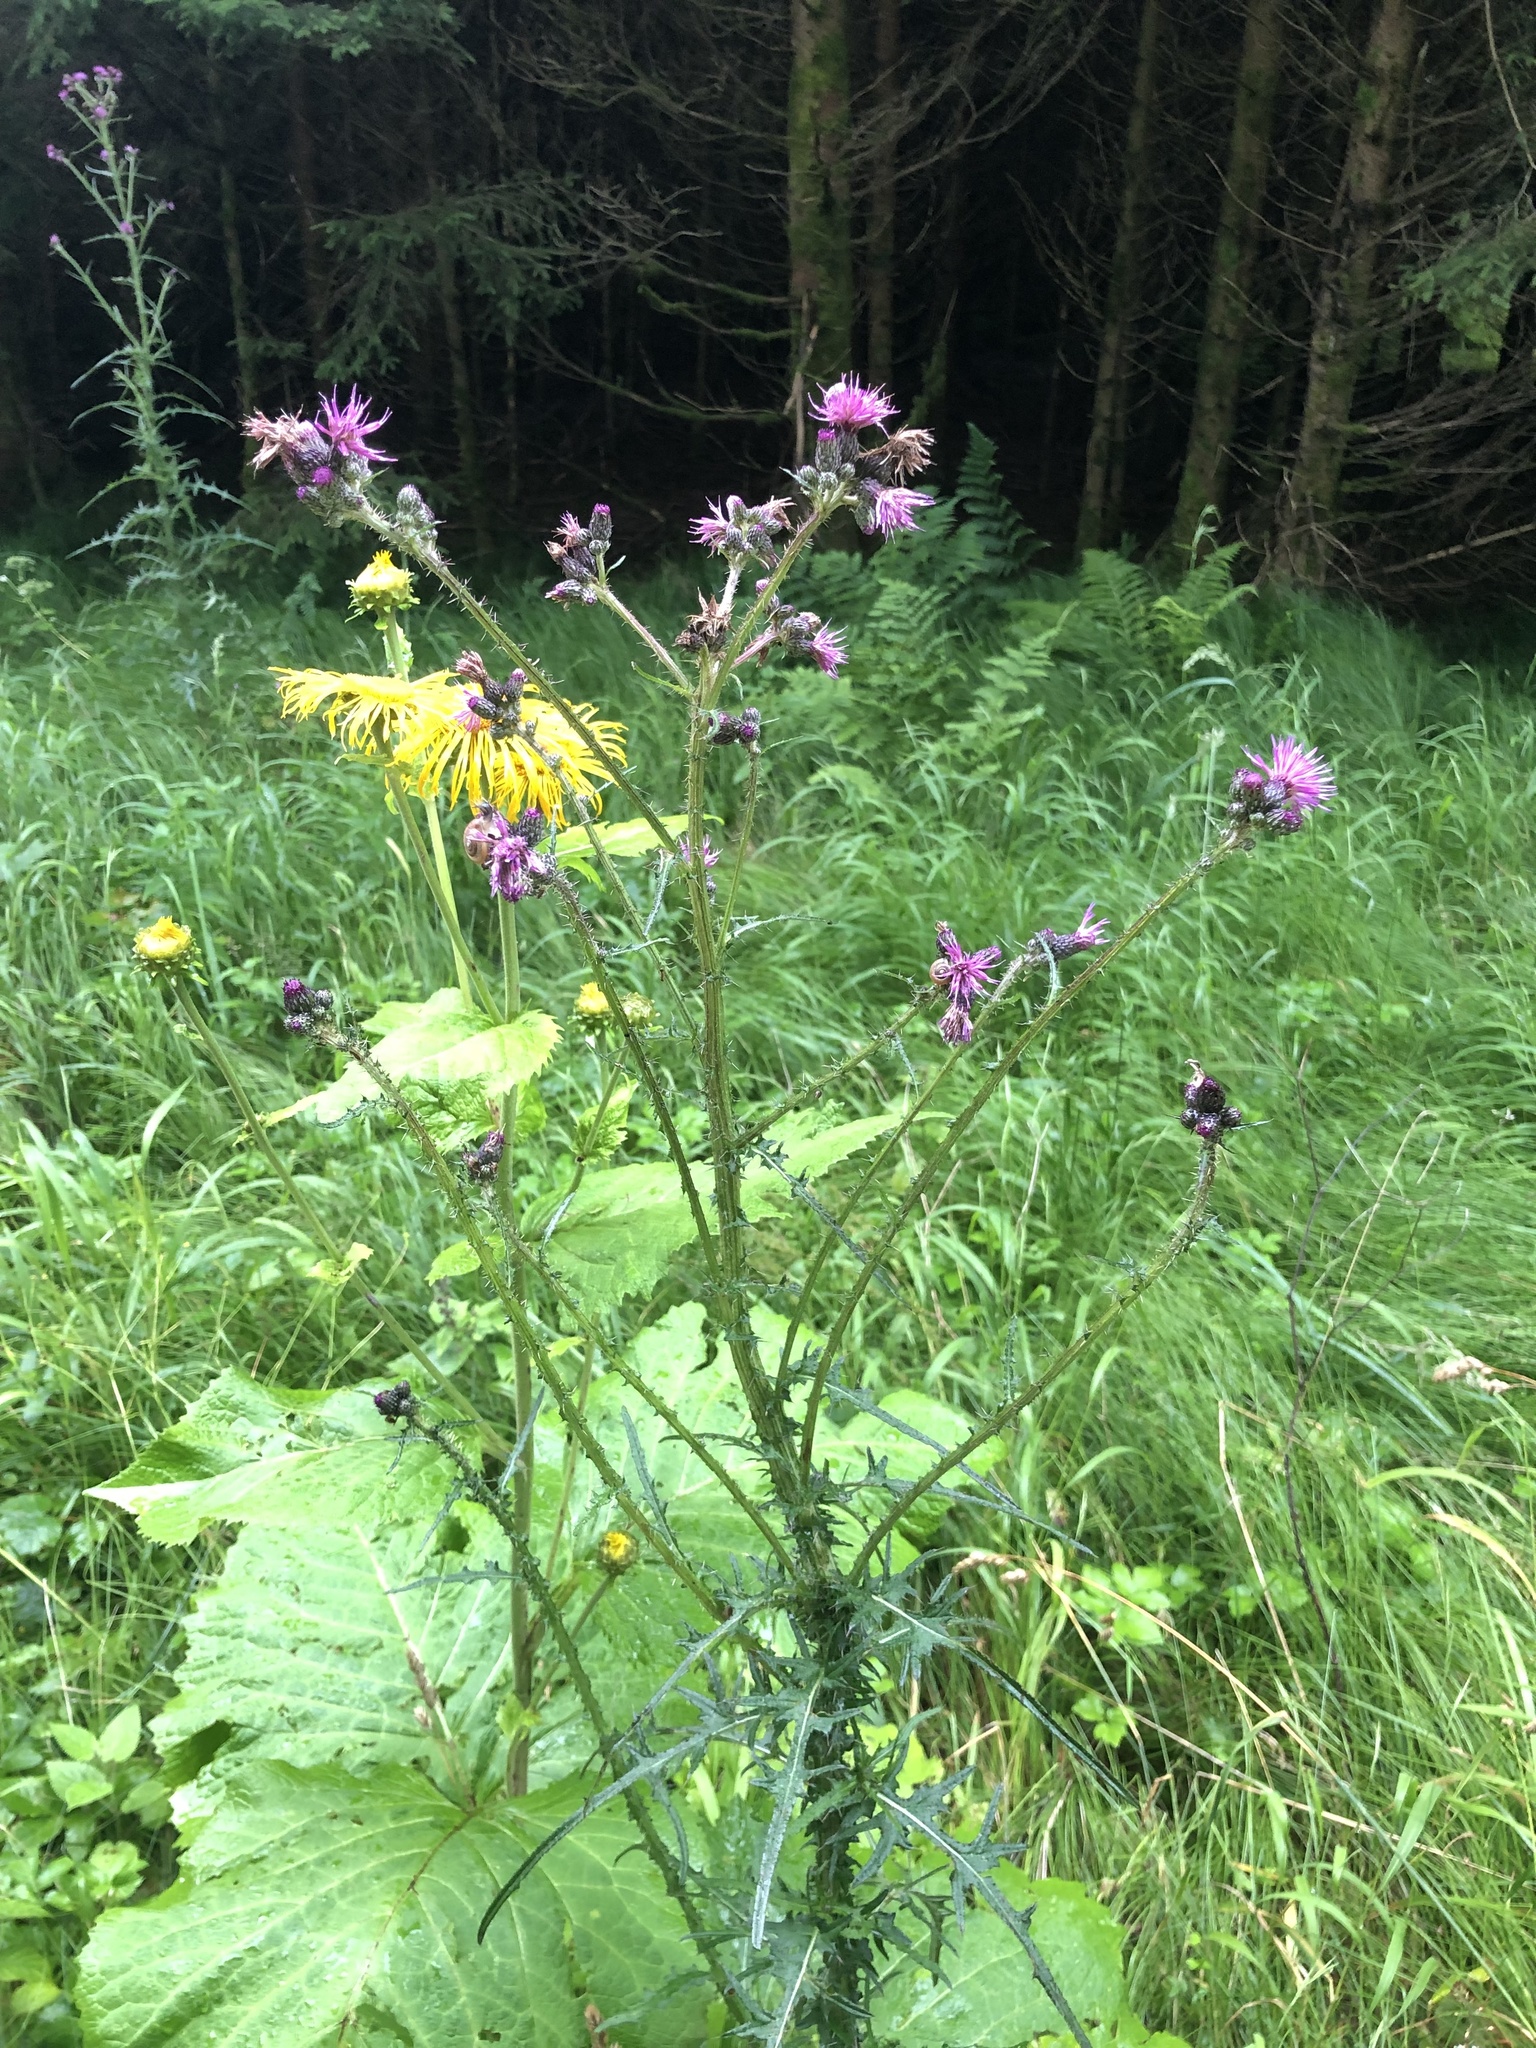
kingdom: Plantae
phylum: Tracheophyta
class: Magnoliopsida
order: Asterales
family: Asteraceae
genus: Cirsium
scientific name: Cirsium palustre
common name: Marsh thistle
